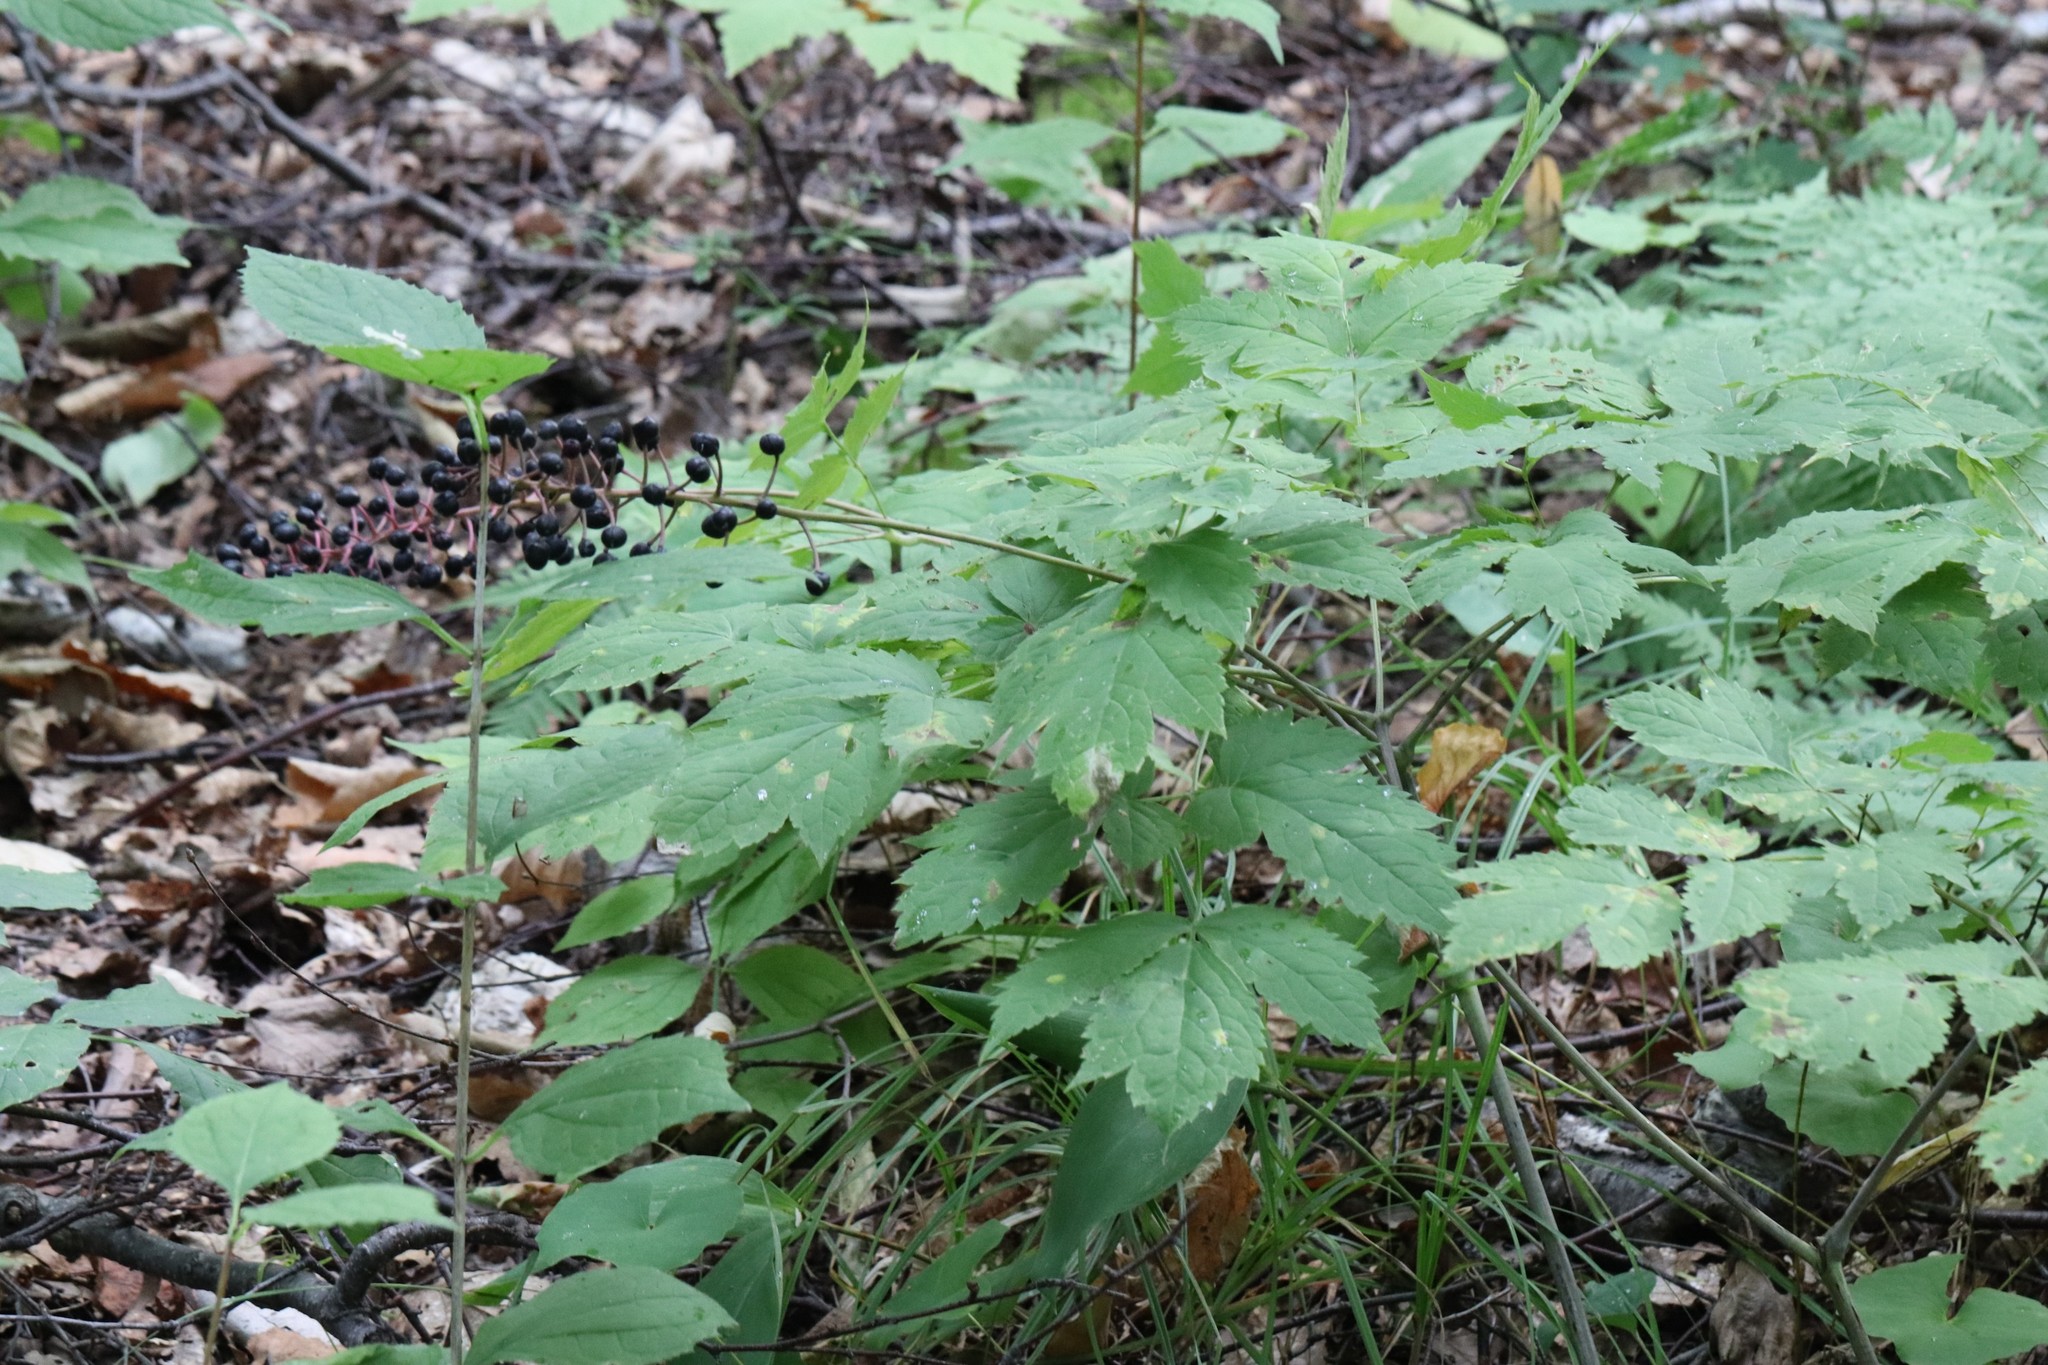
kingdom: Plantae
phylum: Tracheophyta
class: Magnoliopsida
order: Ranunculales
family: Ranunculaceae
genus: Actaea
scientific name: Actaea spicata
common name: Baneberry
